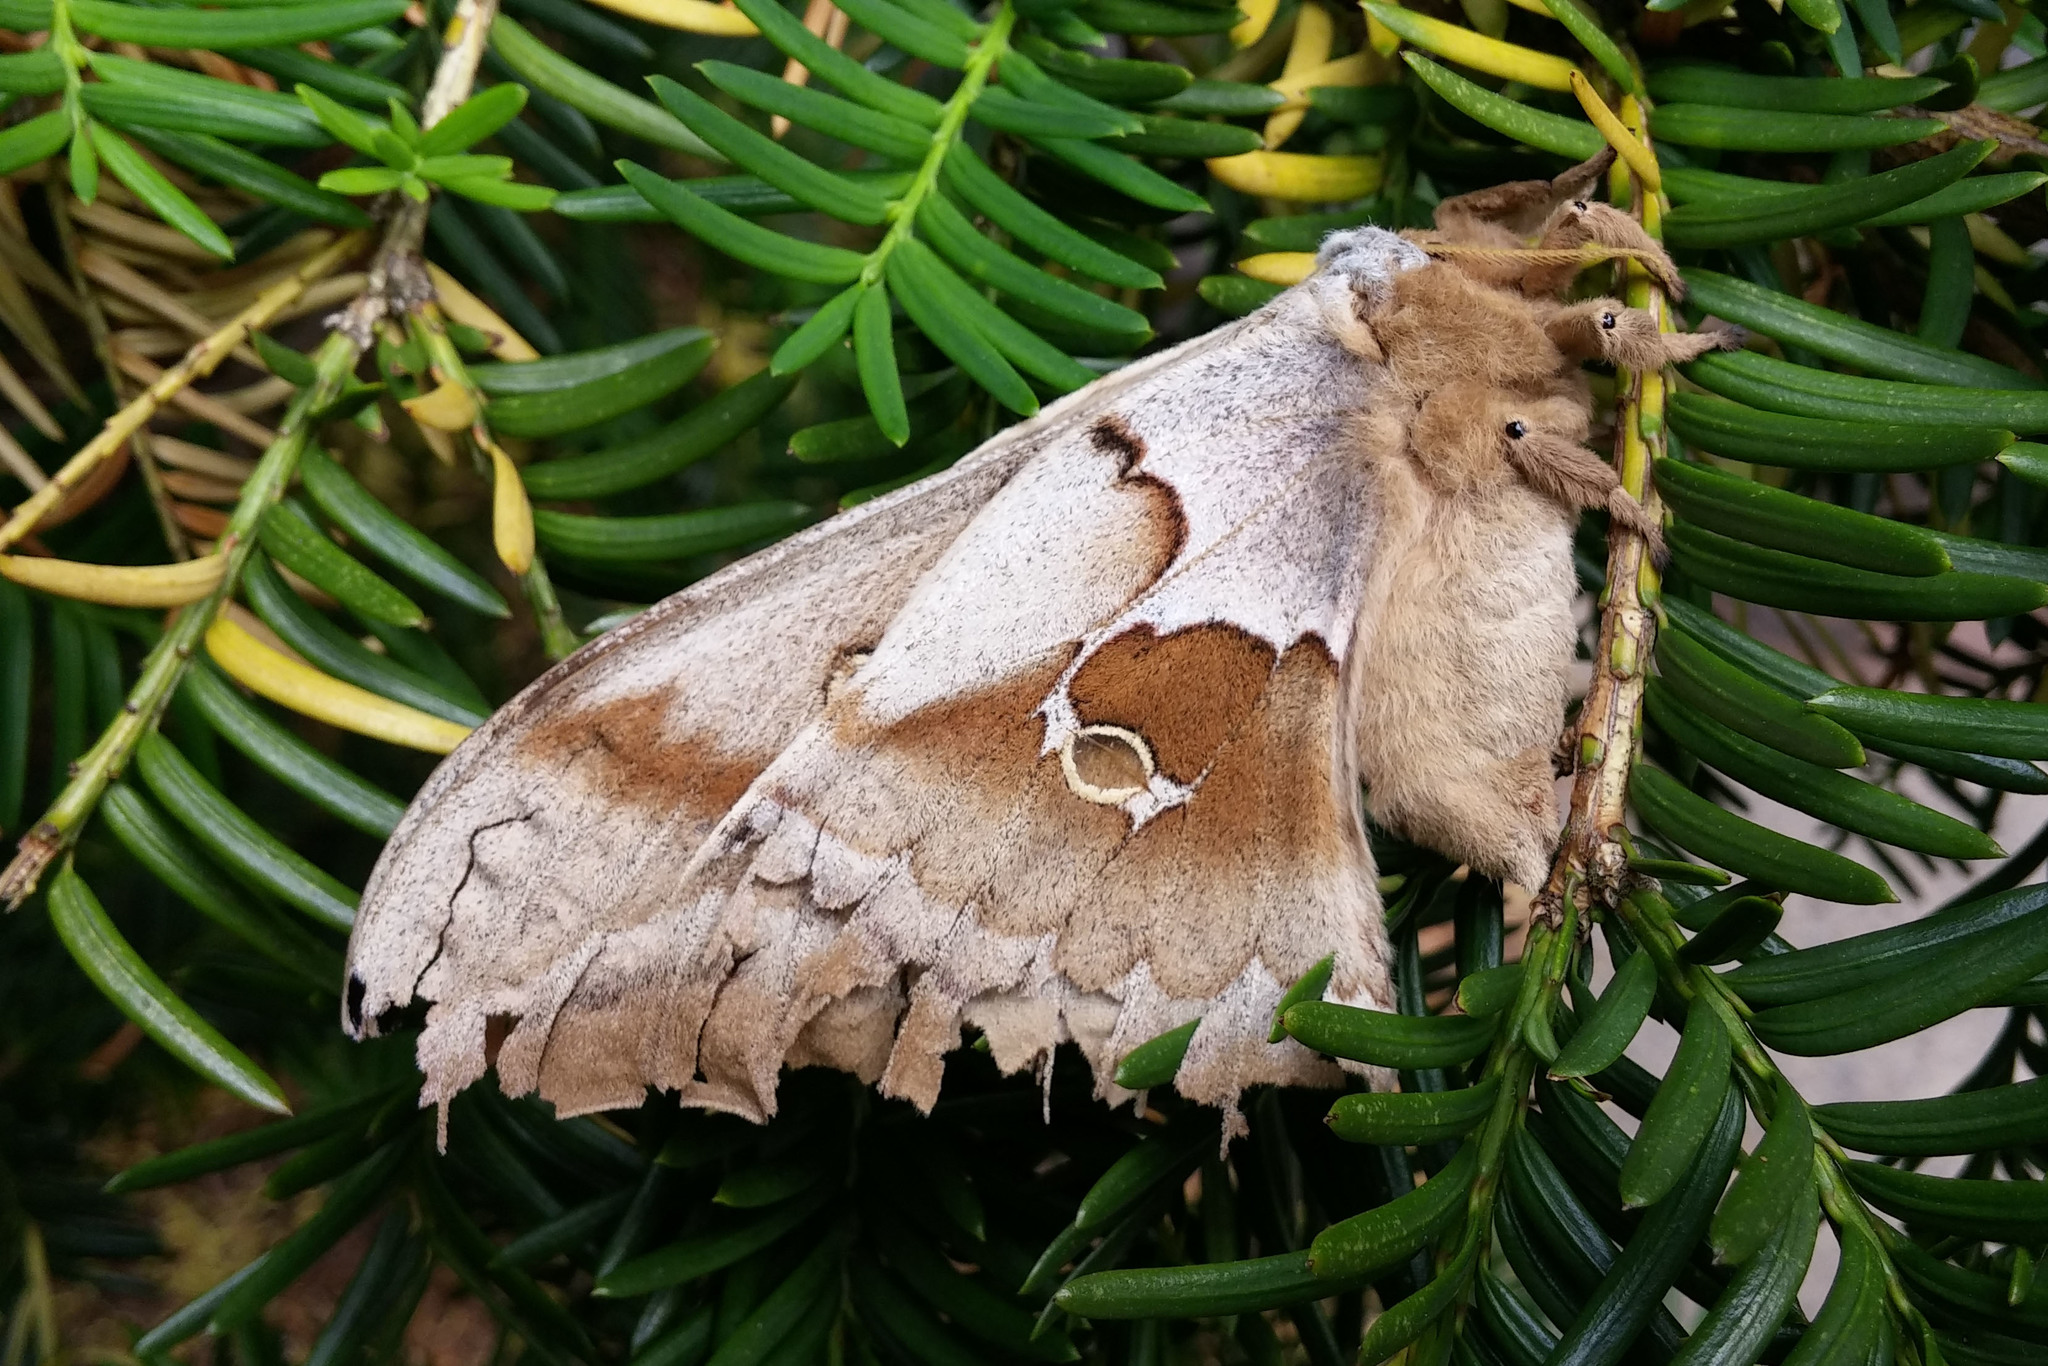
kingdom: Animalia
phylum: Arthropoda
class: Insecta
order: Lepidoptera
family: Saturniidae
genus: Antheraea
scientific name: Antheraea polyphemus
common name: Polyphemus moth
